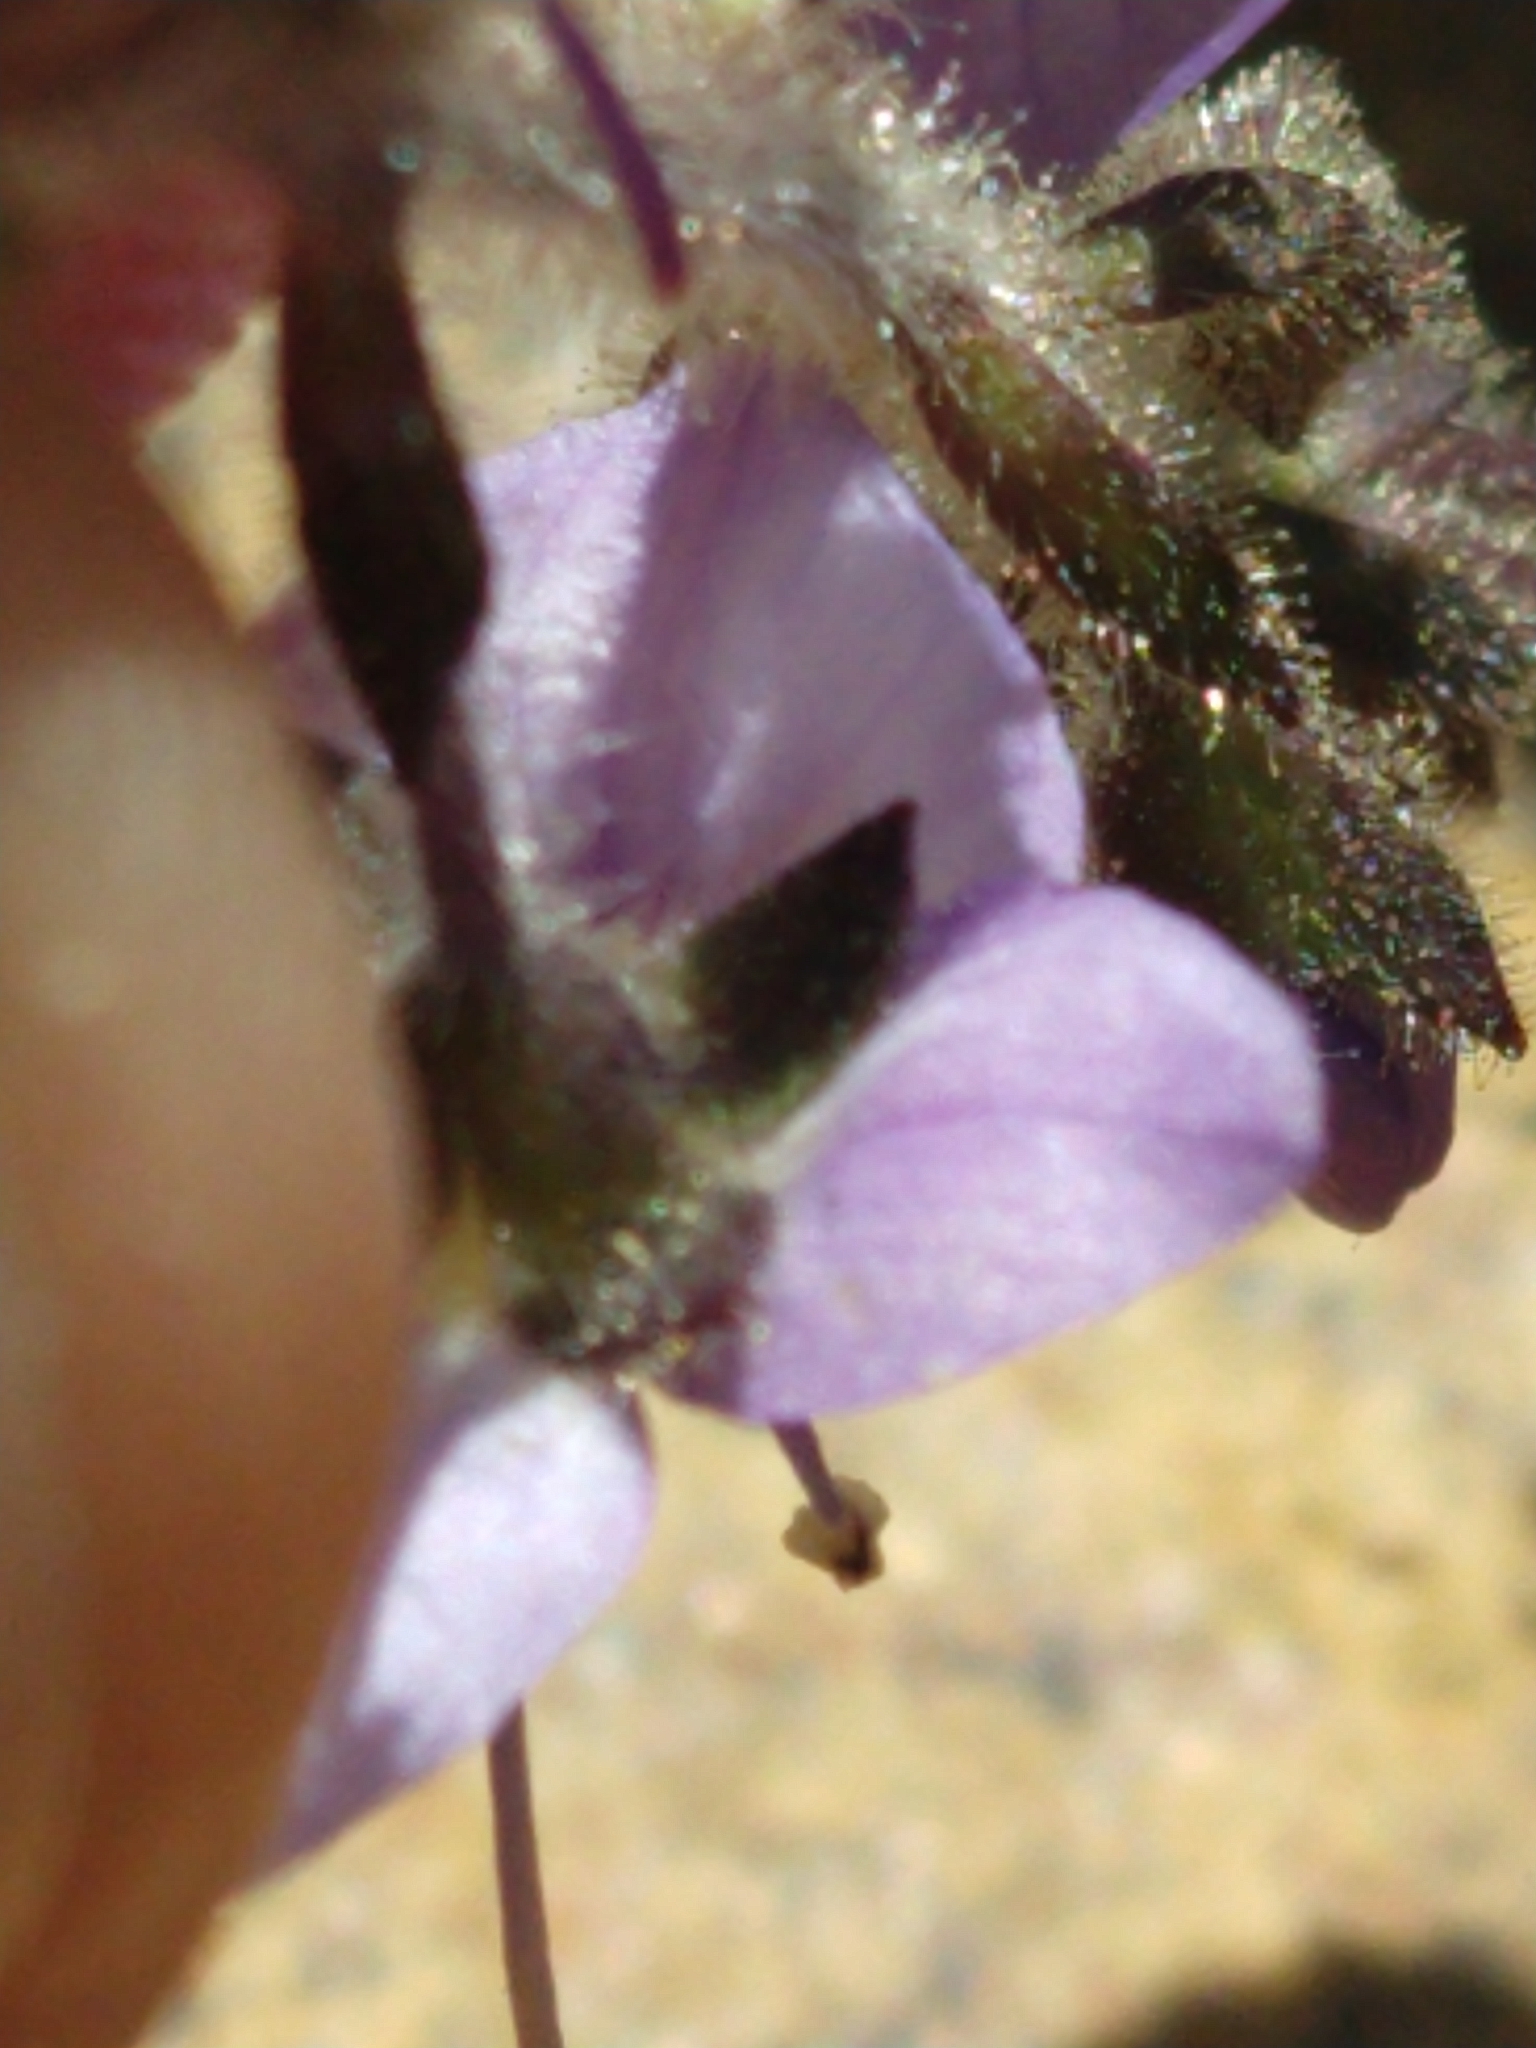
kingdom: Plantae
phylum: Tracheophyta
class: Magnoliopsida
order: Lamiales
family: Plantaginaceae
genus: Veronica
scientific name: Veronica copelandii
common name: Copeland's speedwell
